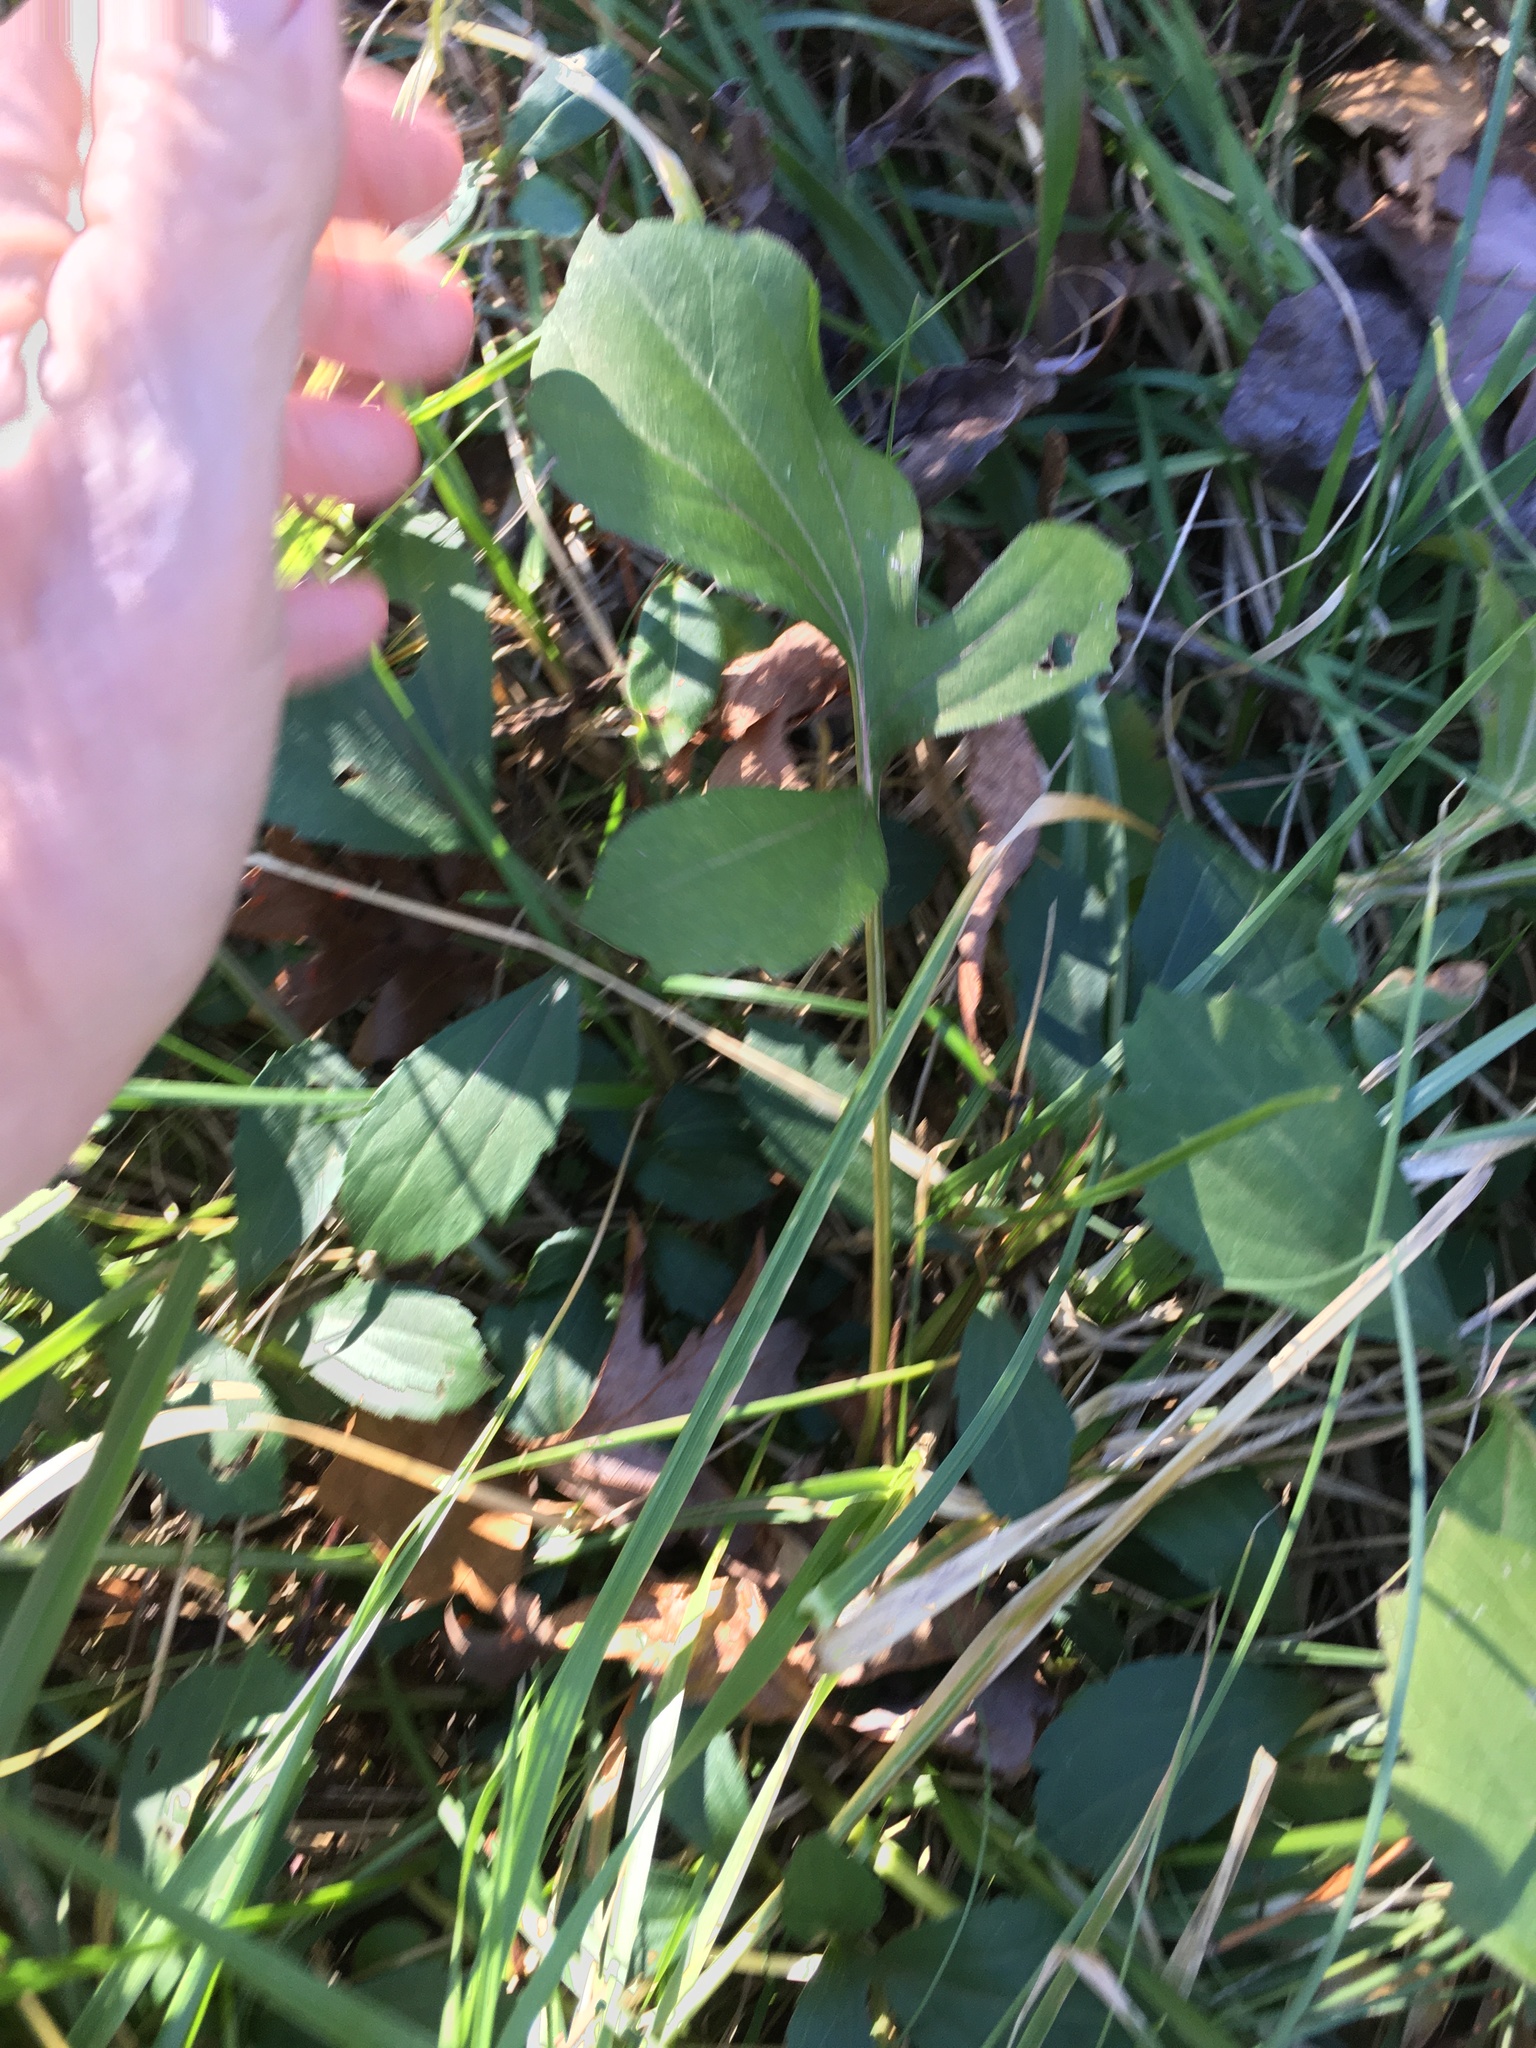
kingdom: Plantae
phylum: Tracheophyta
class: Magnoliopsida
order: Asterales
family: Asteraceae
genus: Rudbeckia
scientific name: Rudbeckia laciniata
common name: Coneflower
